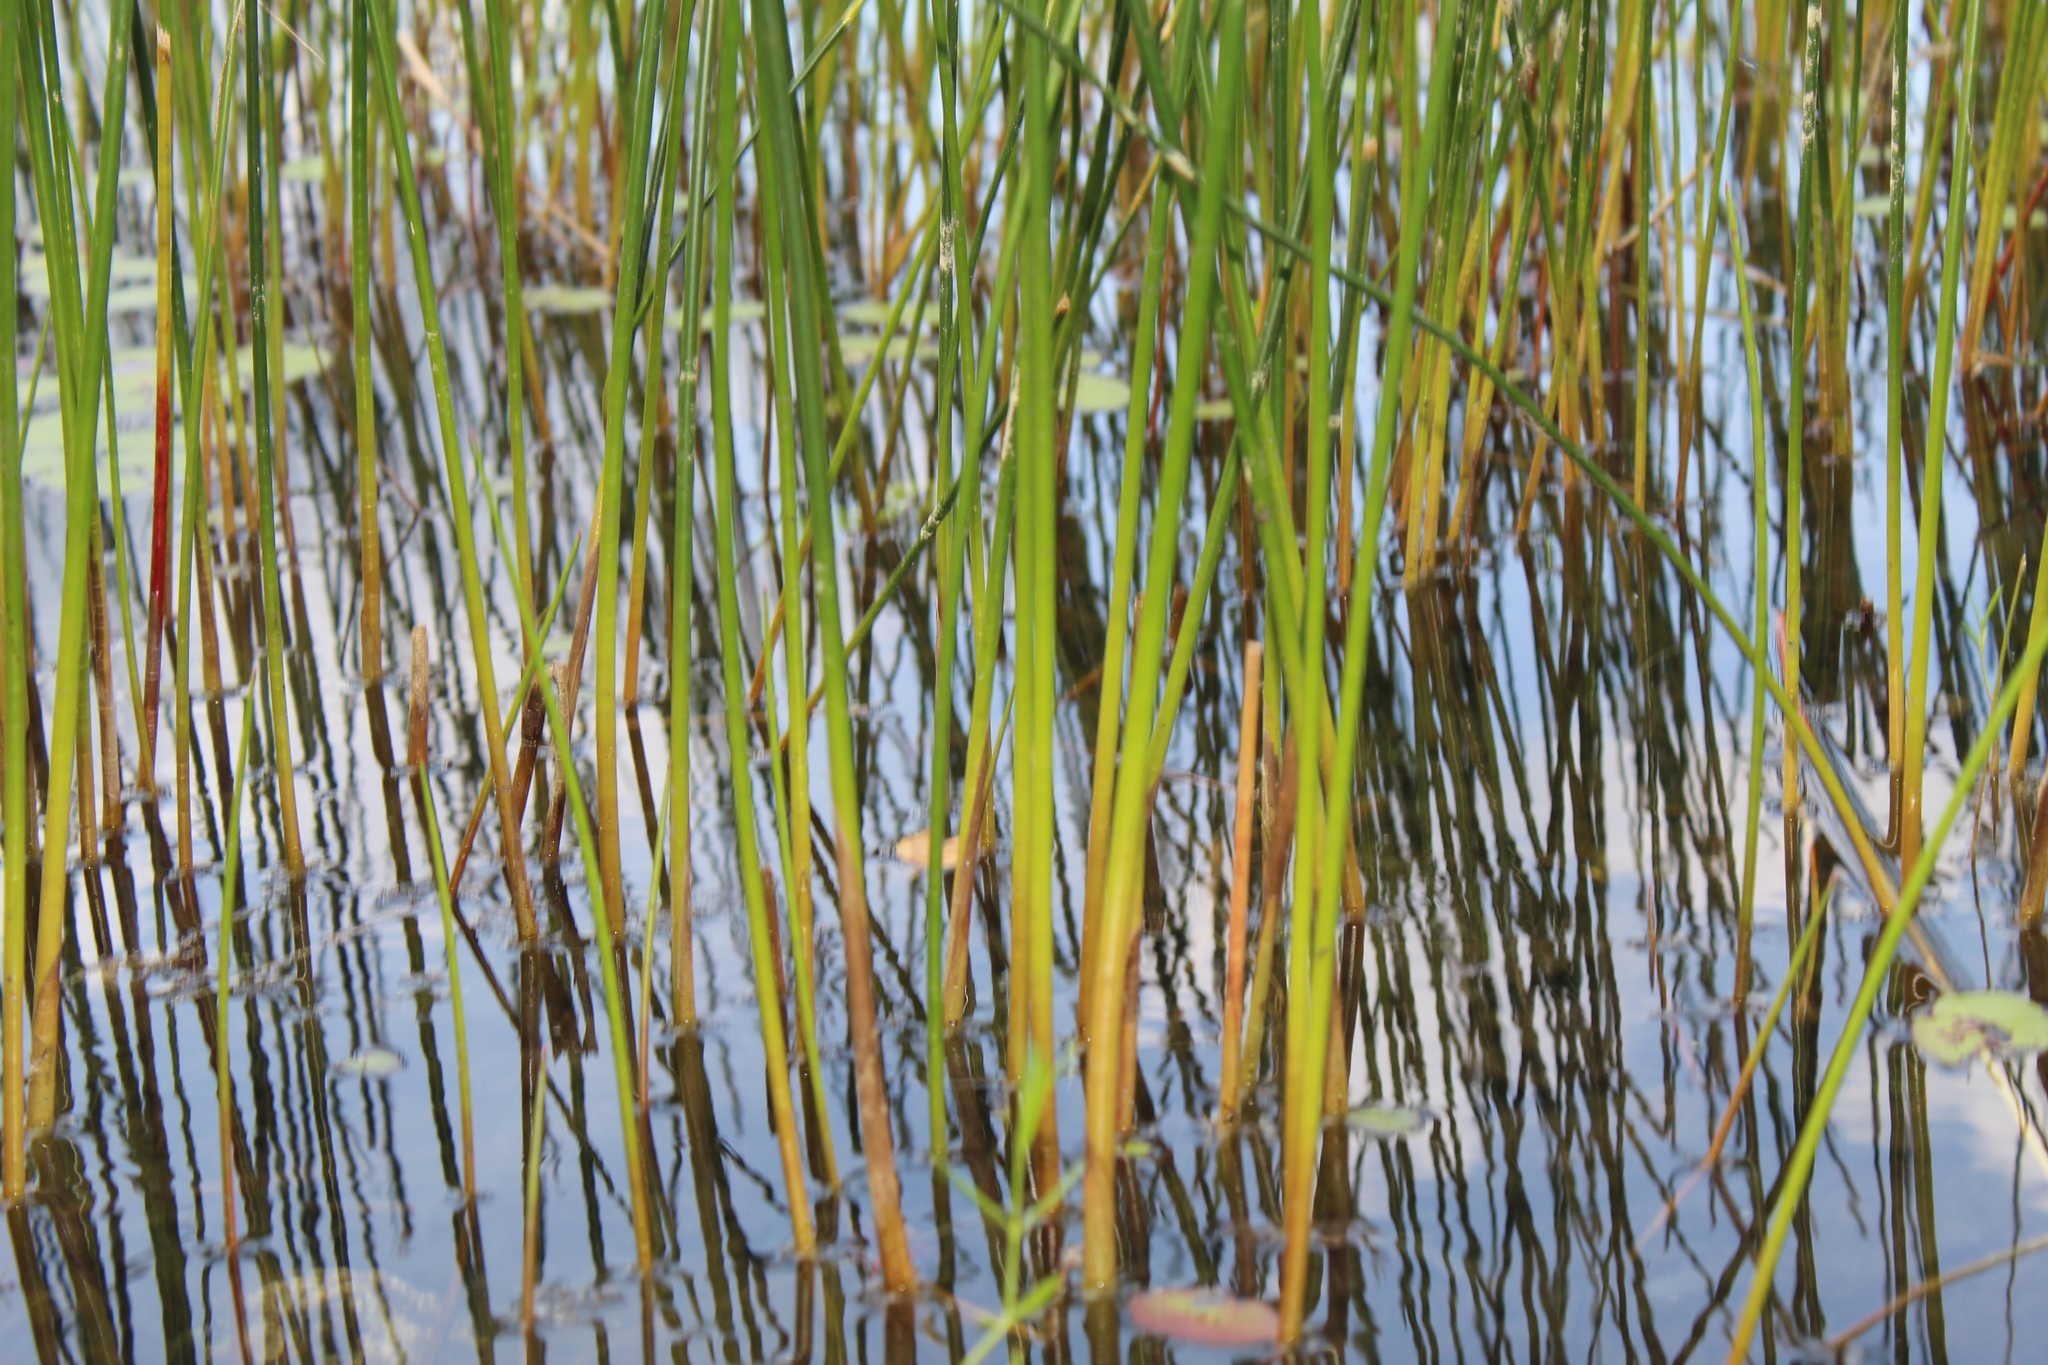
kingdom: Plantae
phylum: Tracheophyta
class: Liliopsida
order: Poales
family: Juncaceae
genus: Juncus
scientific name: Juncus militaris
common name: Bayonet rush
